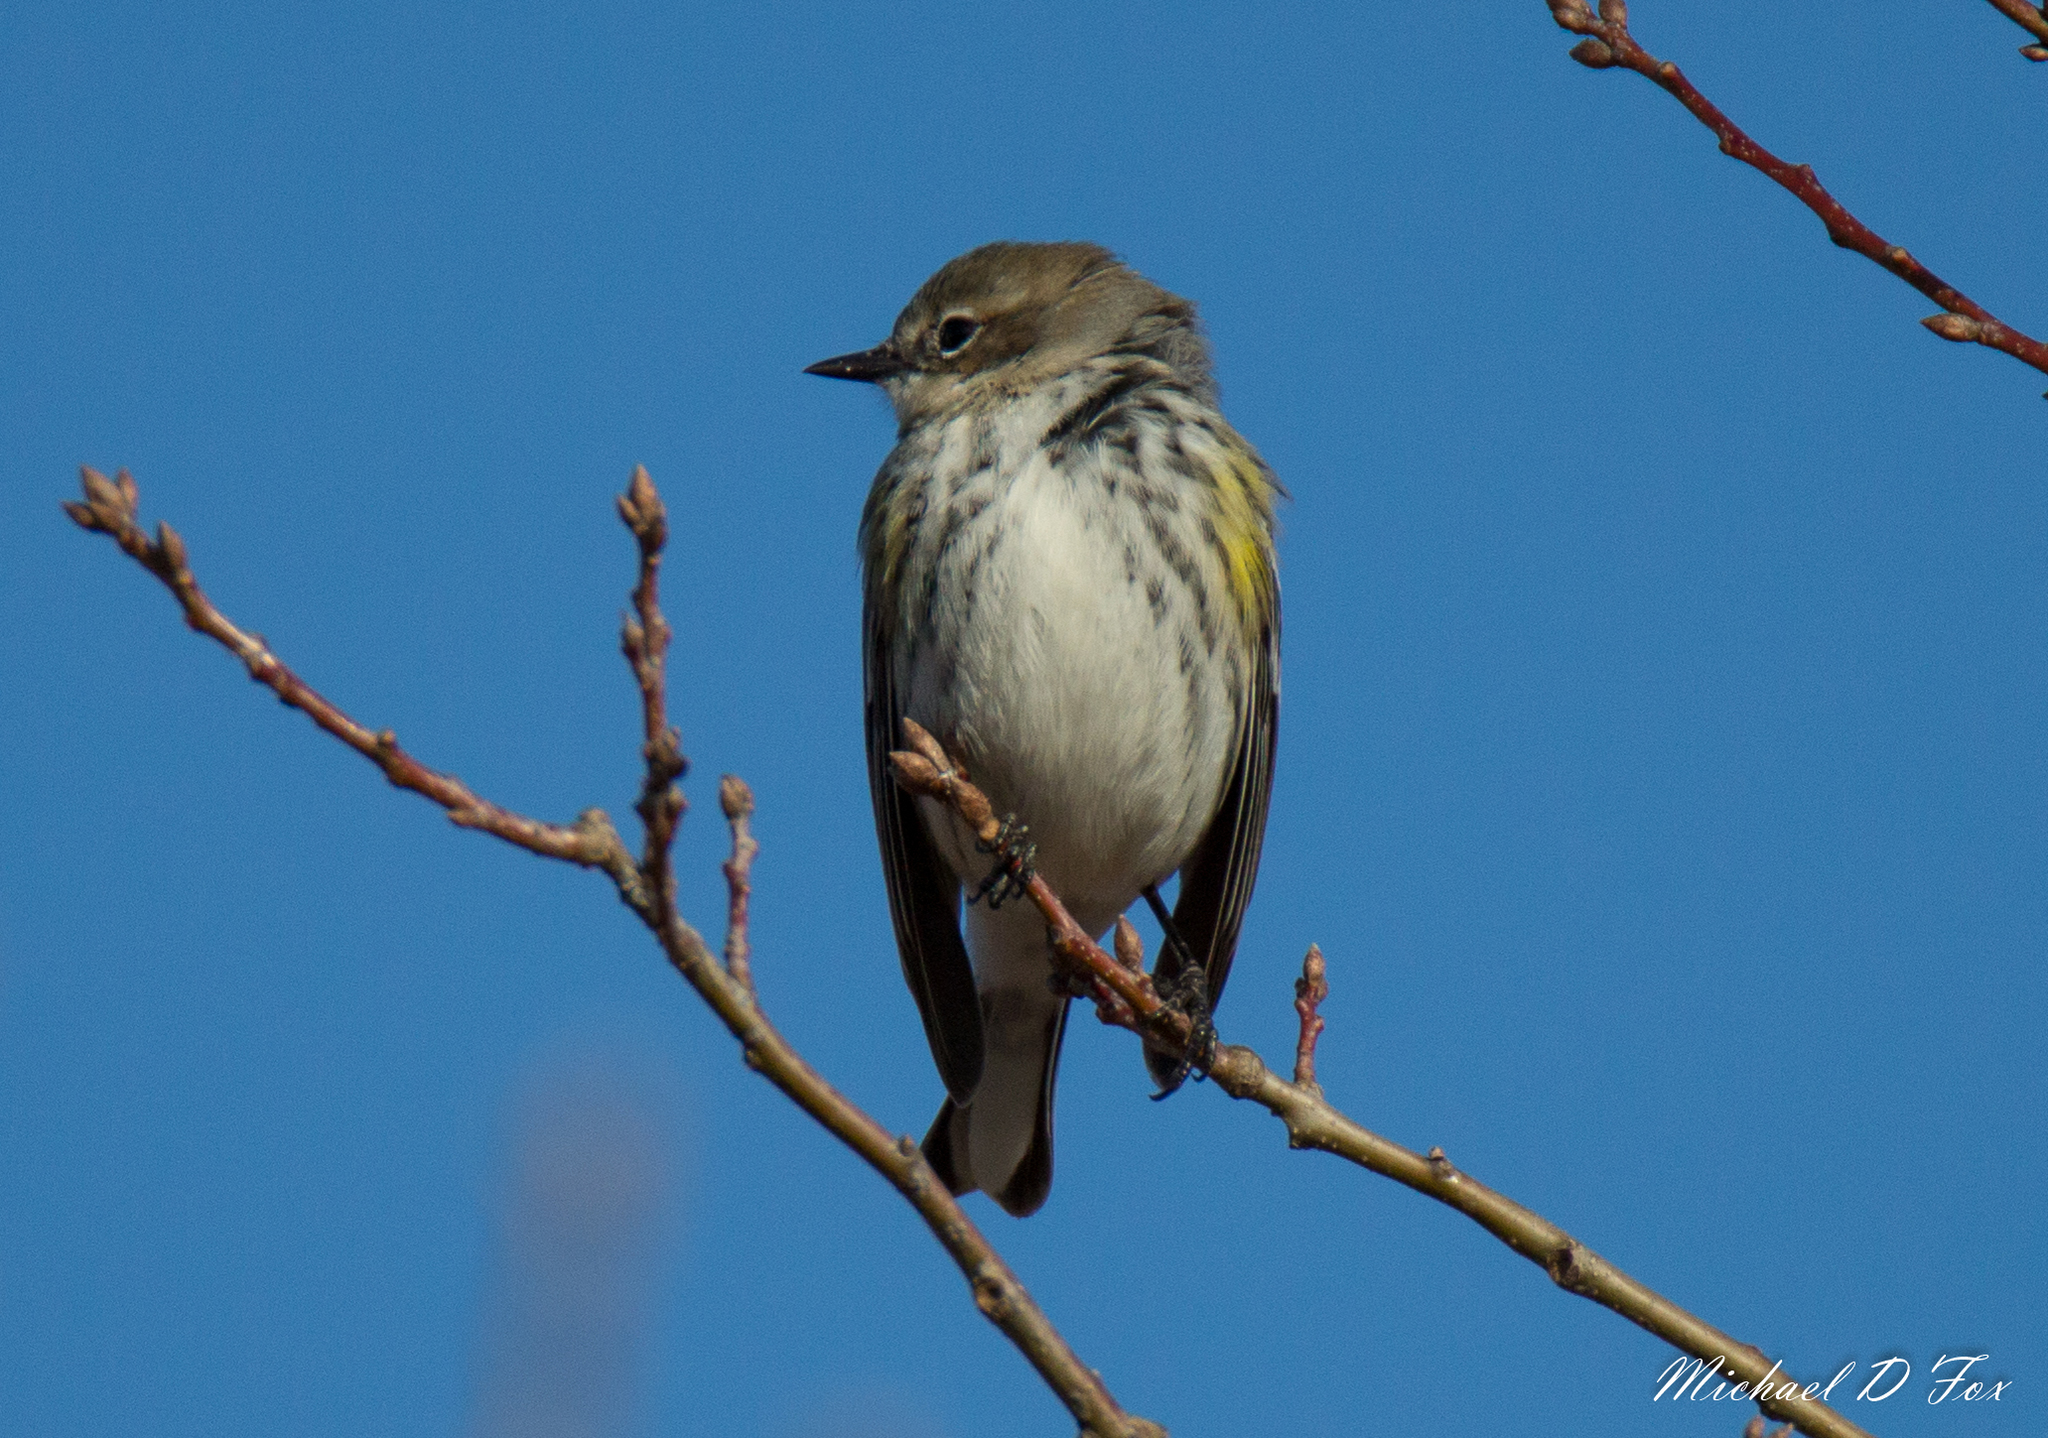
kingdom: Animalia
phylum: Chordata
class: Aves
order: Passeriformes
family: Parulidae
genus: Setophaga
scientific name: Setophaga coronata
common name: Myrtle warbler
